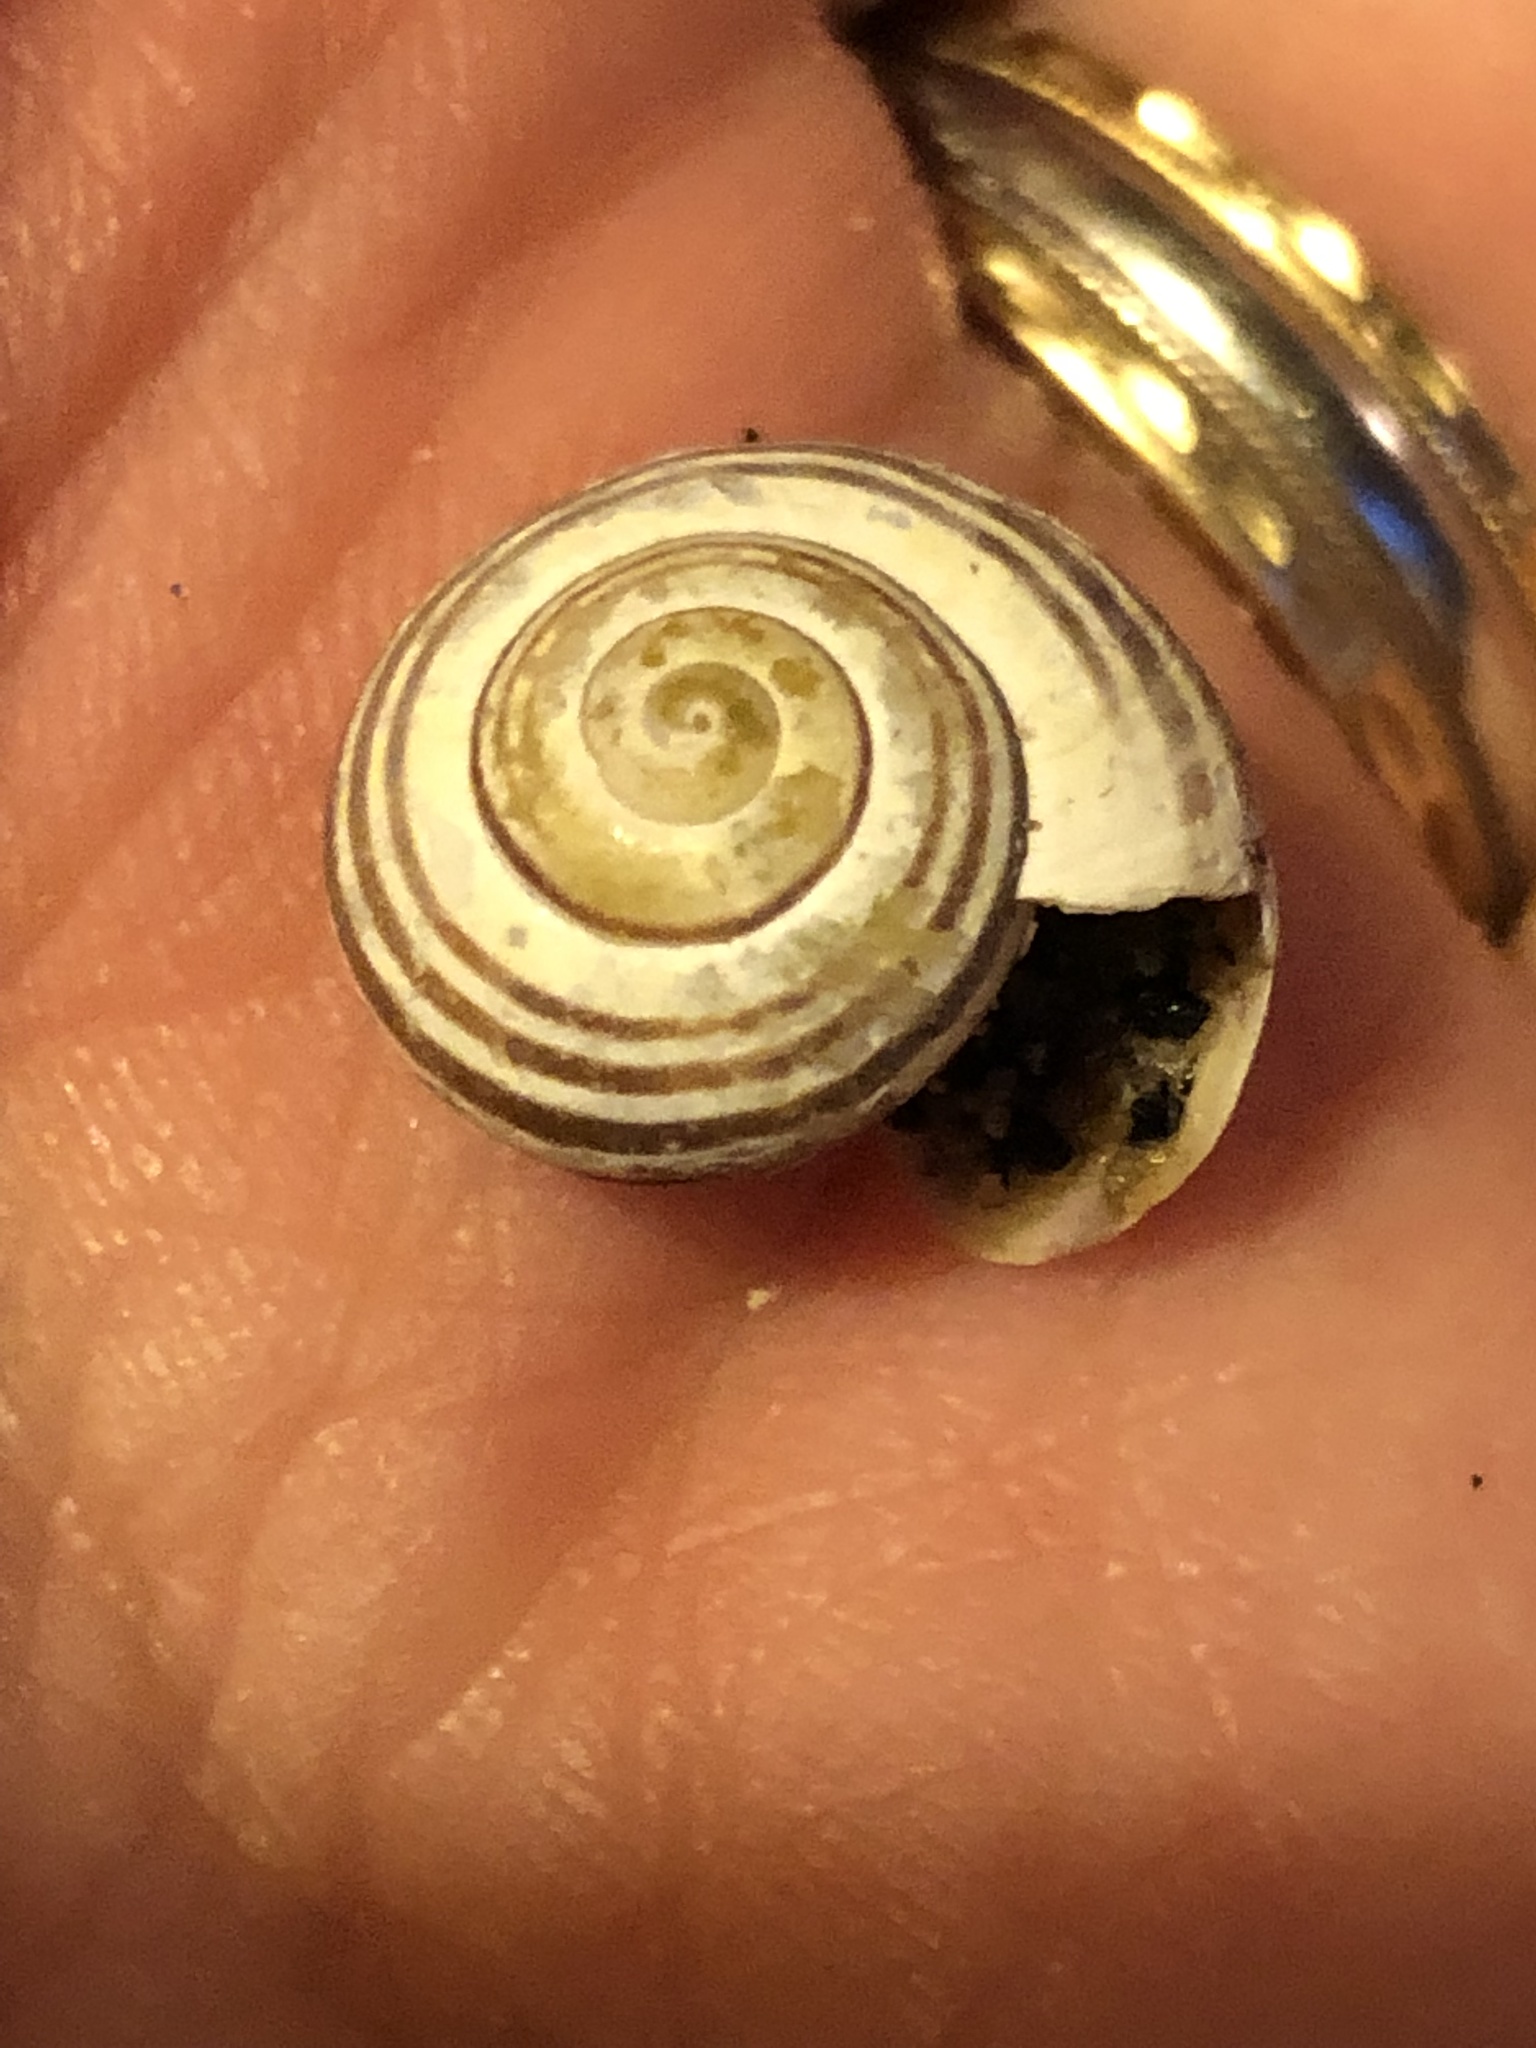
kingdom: Animalia
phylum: Mollusca
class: Gastropoda
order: Stylommatophora
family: Helicidae
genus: Cepaea
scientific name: Cepaea
